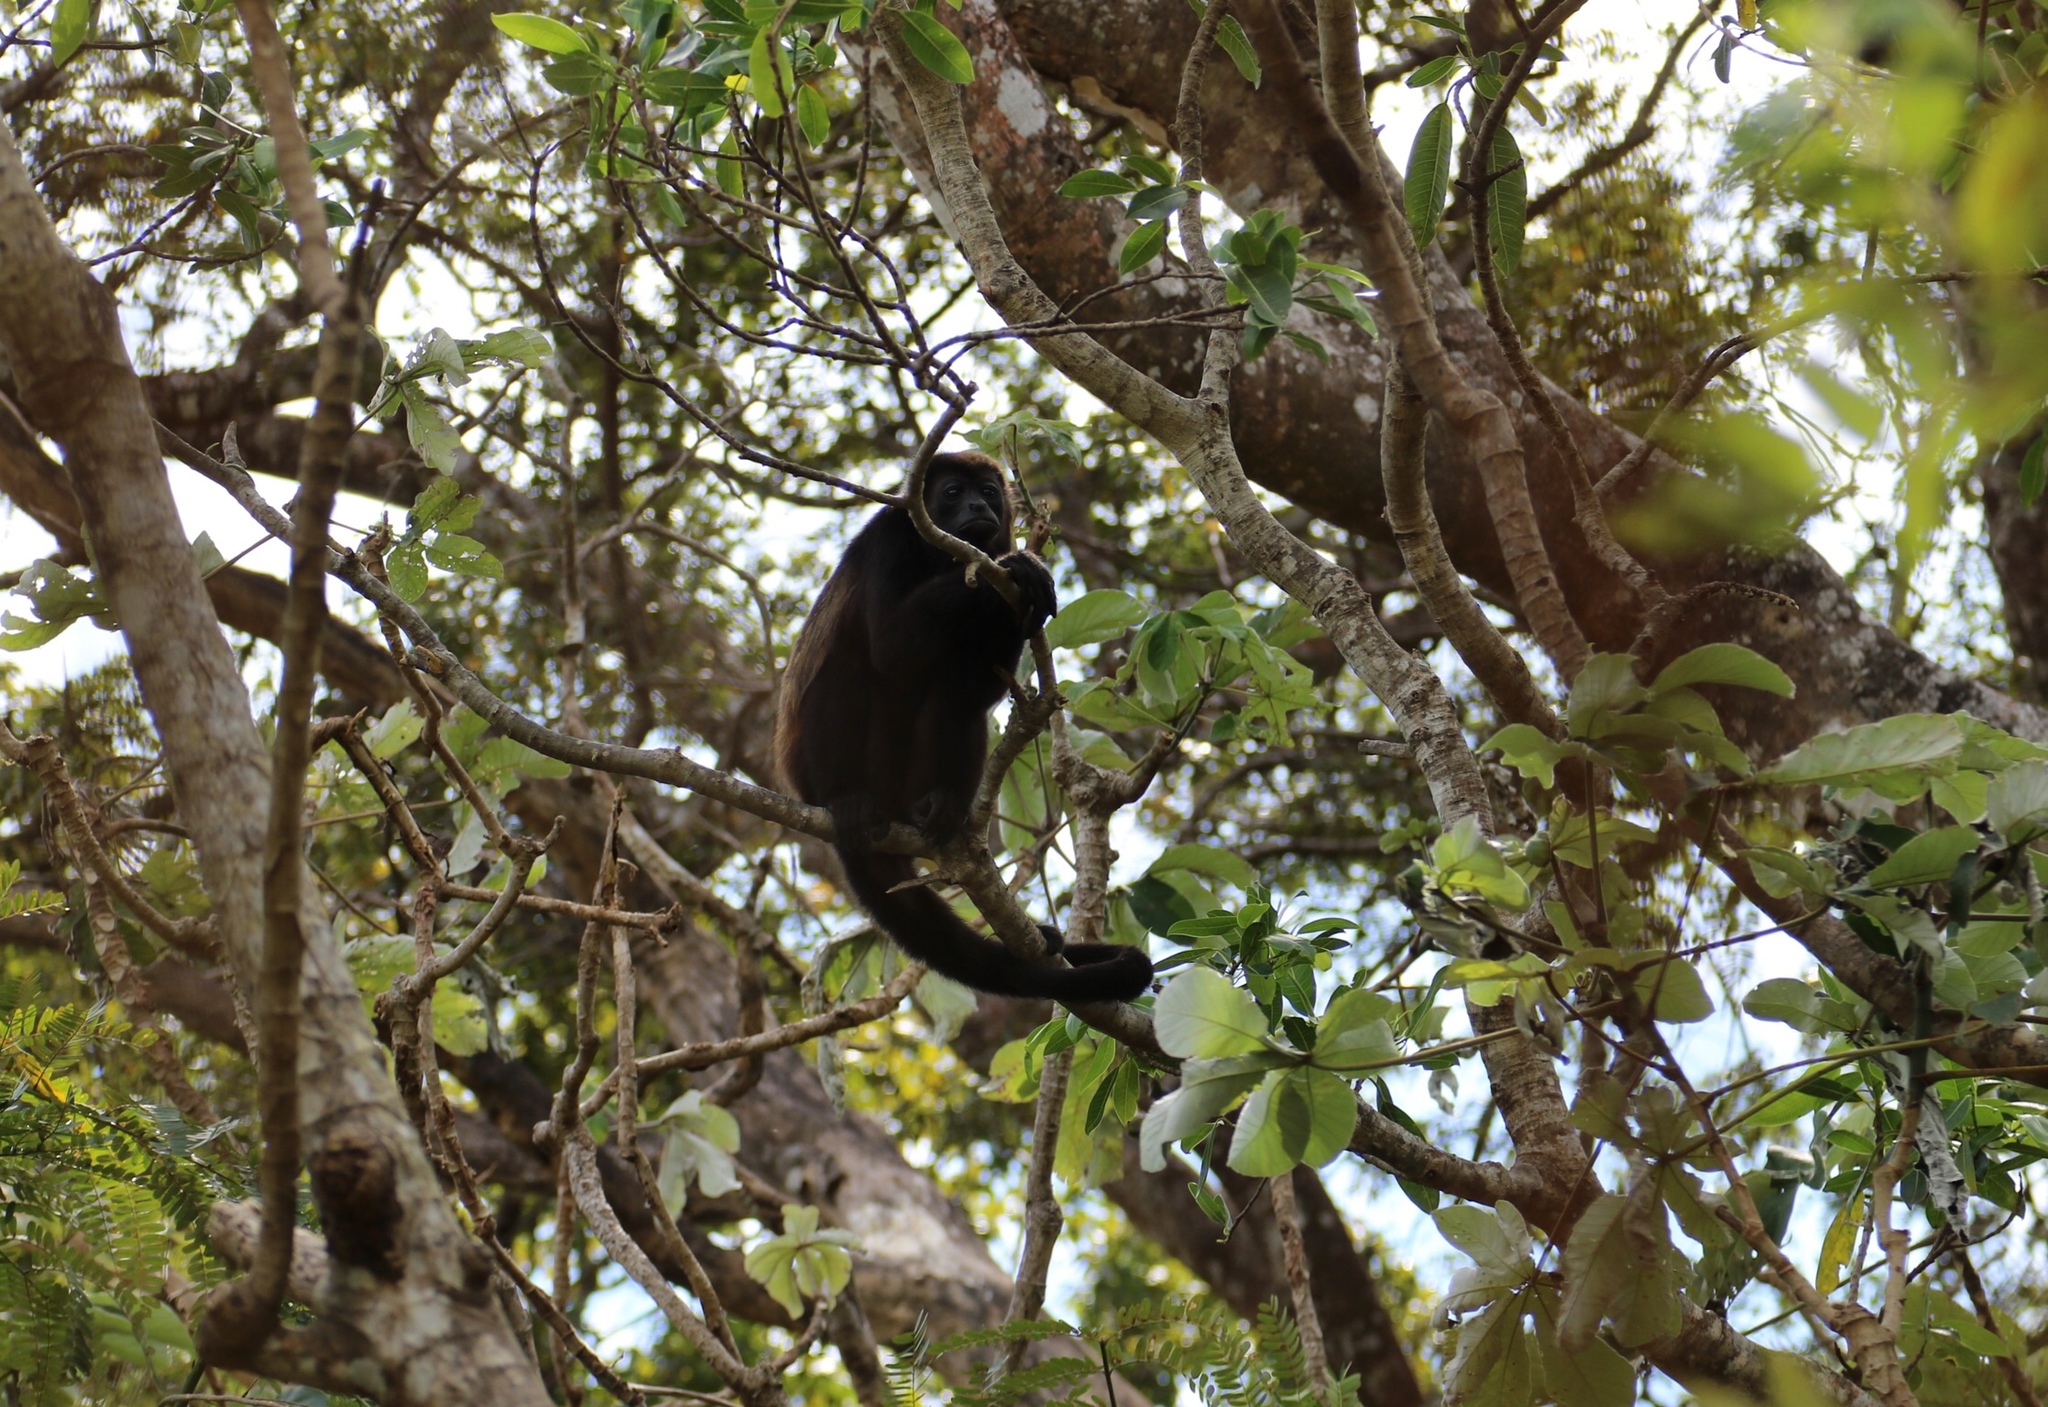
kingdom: Animalia
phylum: Chordata
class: Mammalia
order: Primates
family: Atelidae
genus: Alouatta
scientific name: Alouatta palliata
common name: Mantled howler
